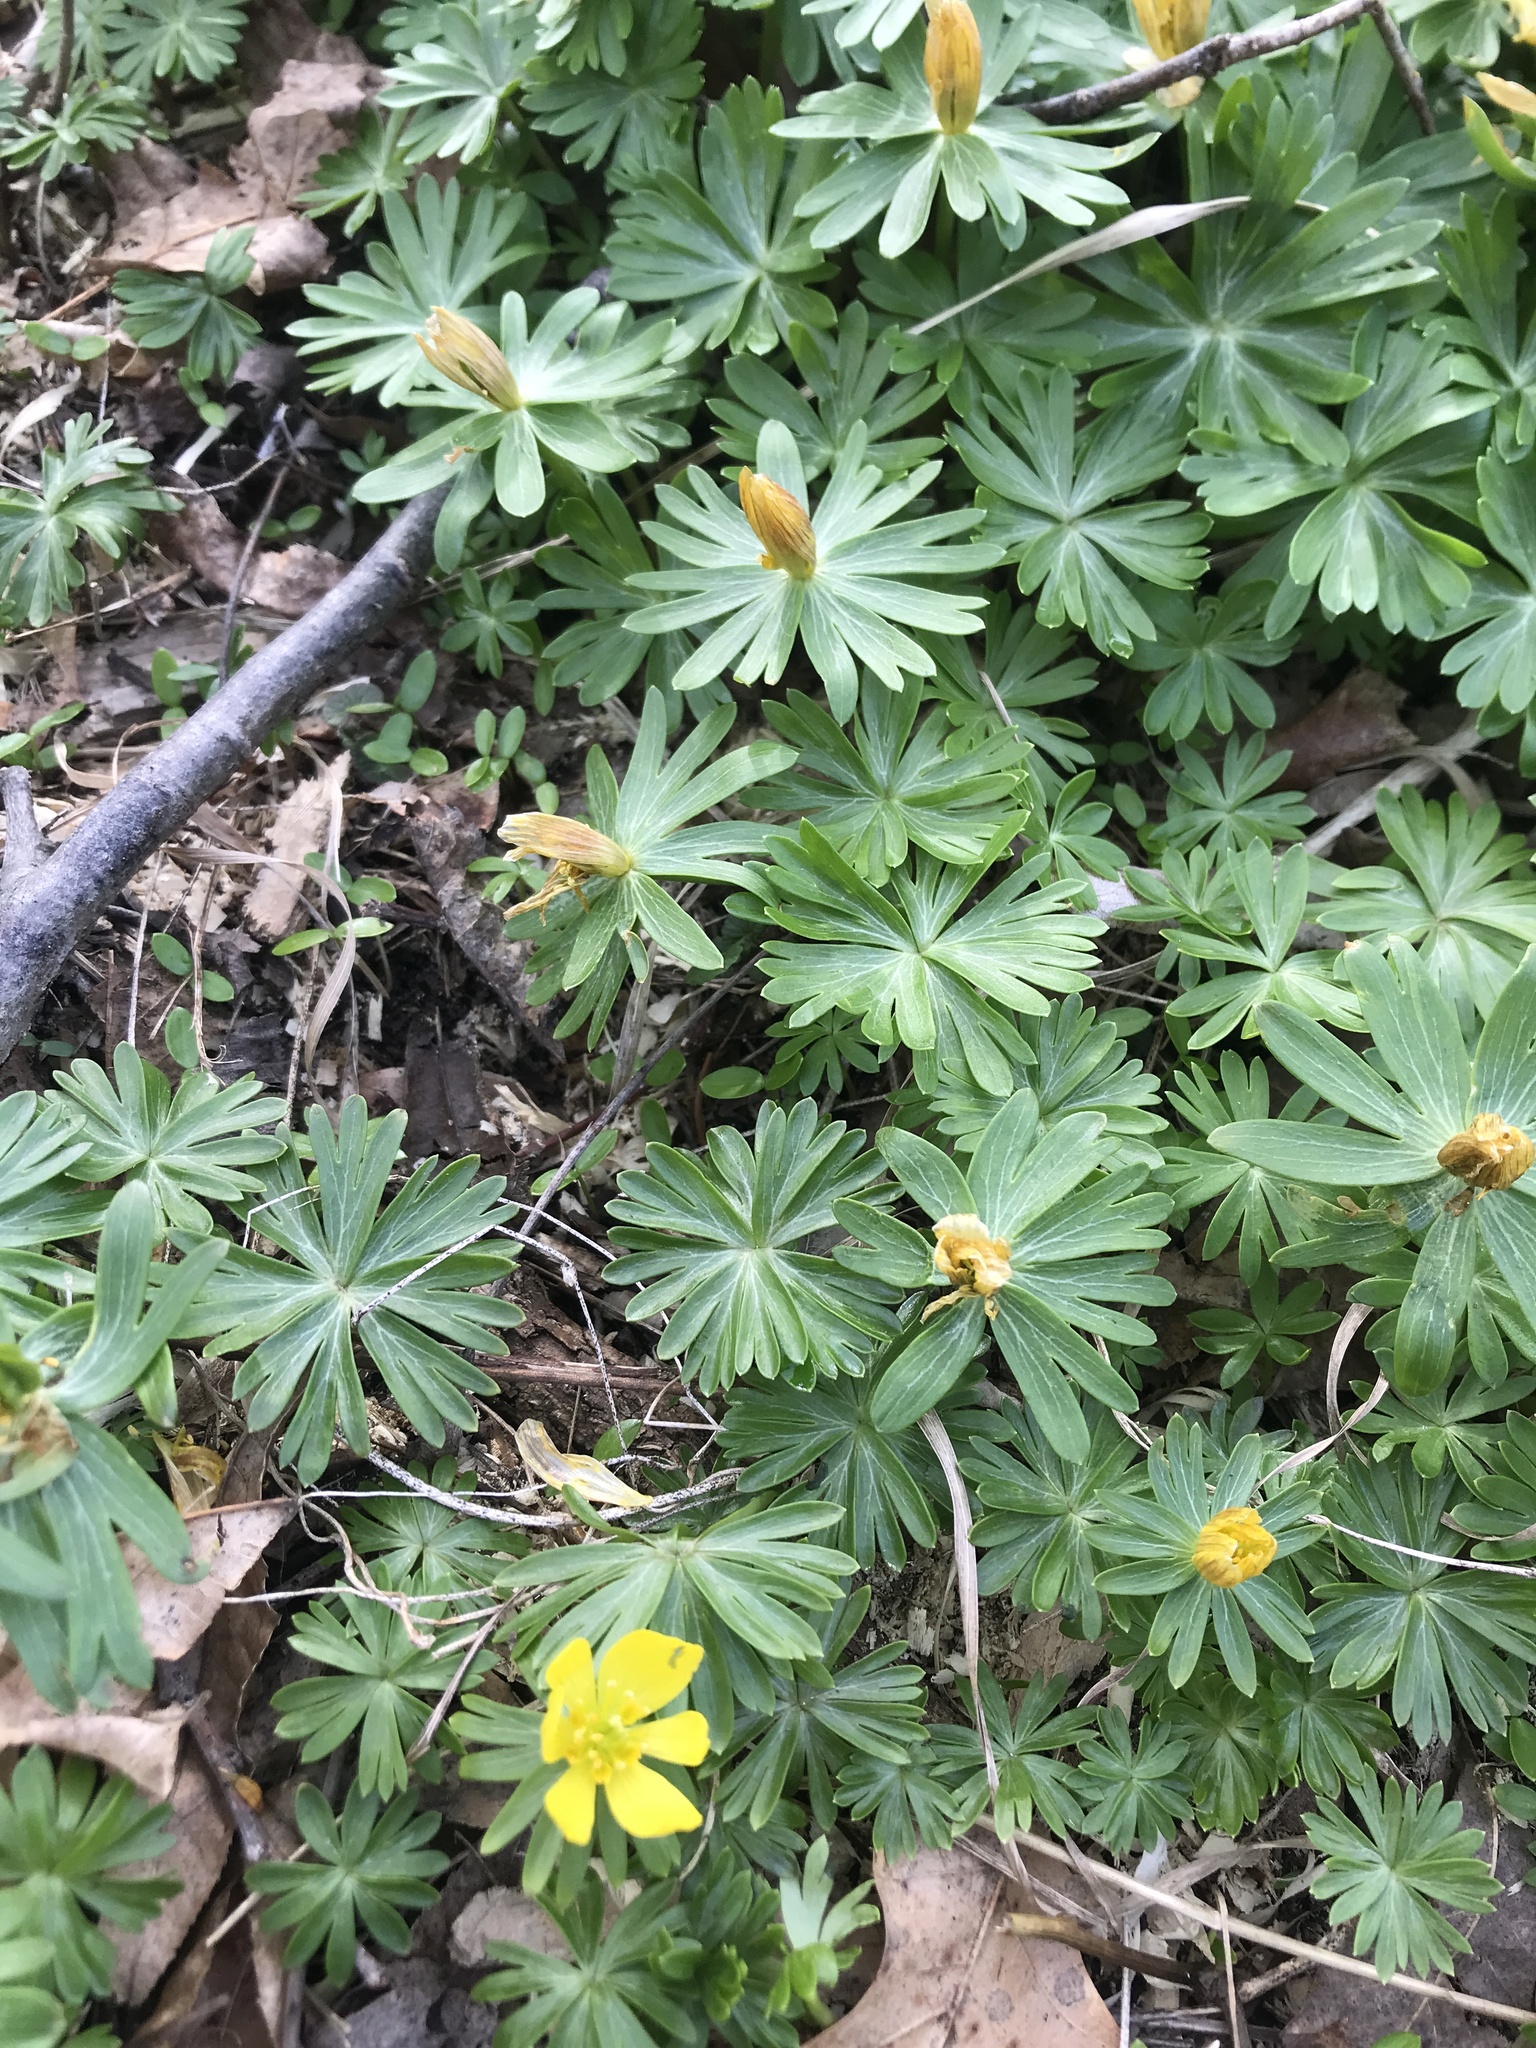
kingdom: Plantae
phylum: Tracheophyta
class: Magnoliopsida
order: Ranunculales
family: Ranunculaceae
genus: Eranthis
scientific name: Eranthis hyemalis
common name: Winter aconite
